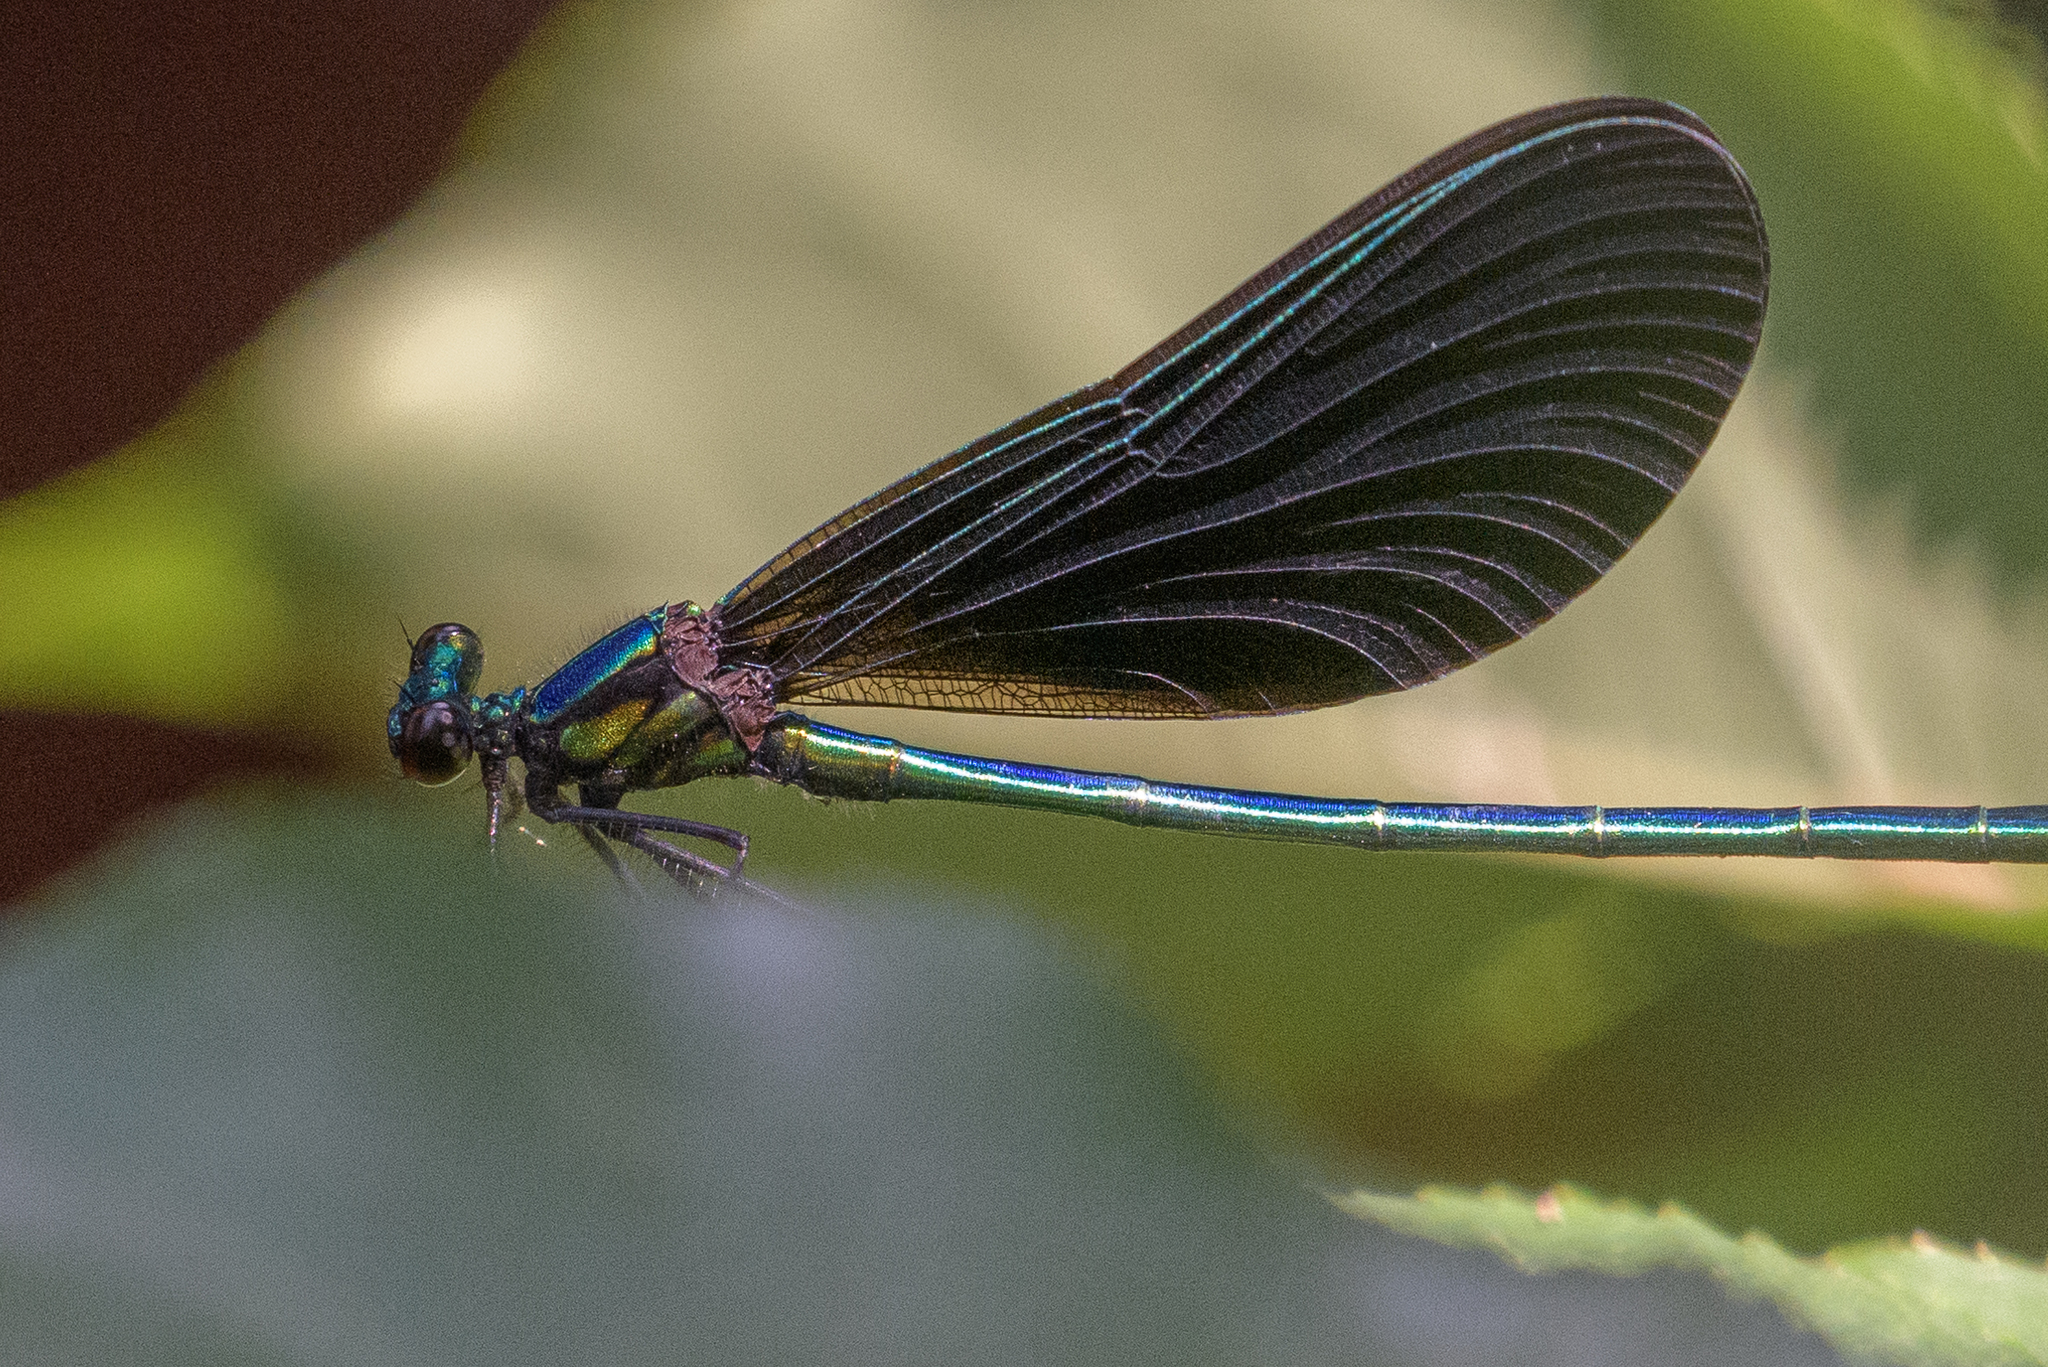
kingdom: Animalia
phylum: Arthropoda
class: Insecta
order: Odonata
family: Calopterygidae
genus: Calopteryx
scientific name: Calopteryx maculata
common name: Ebony jewelwing
